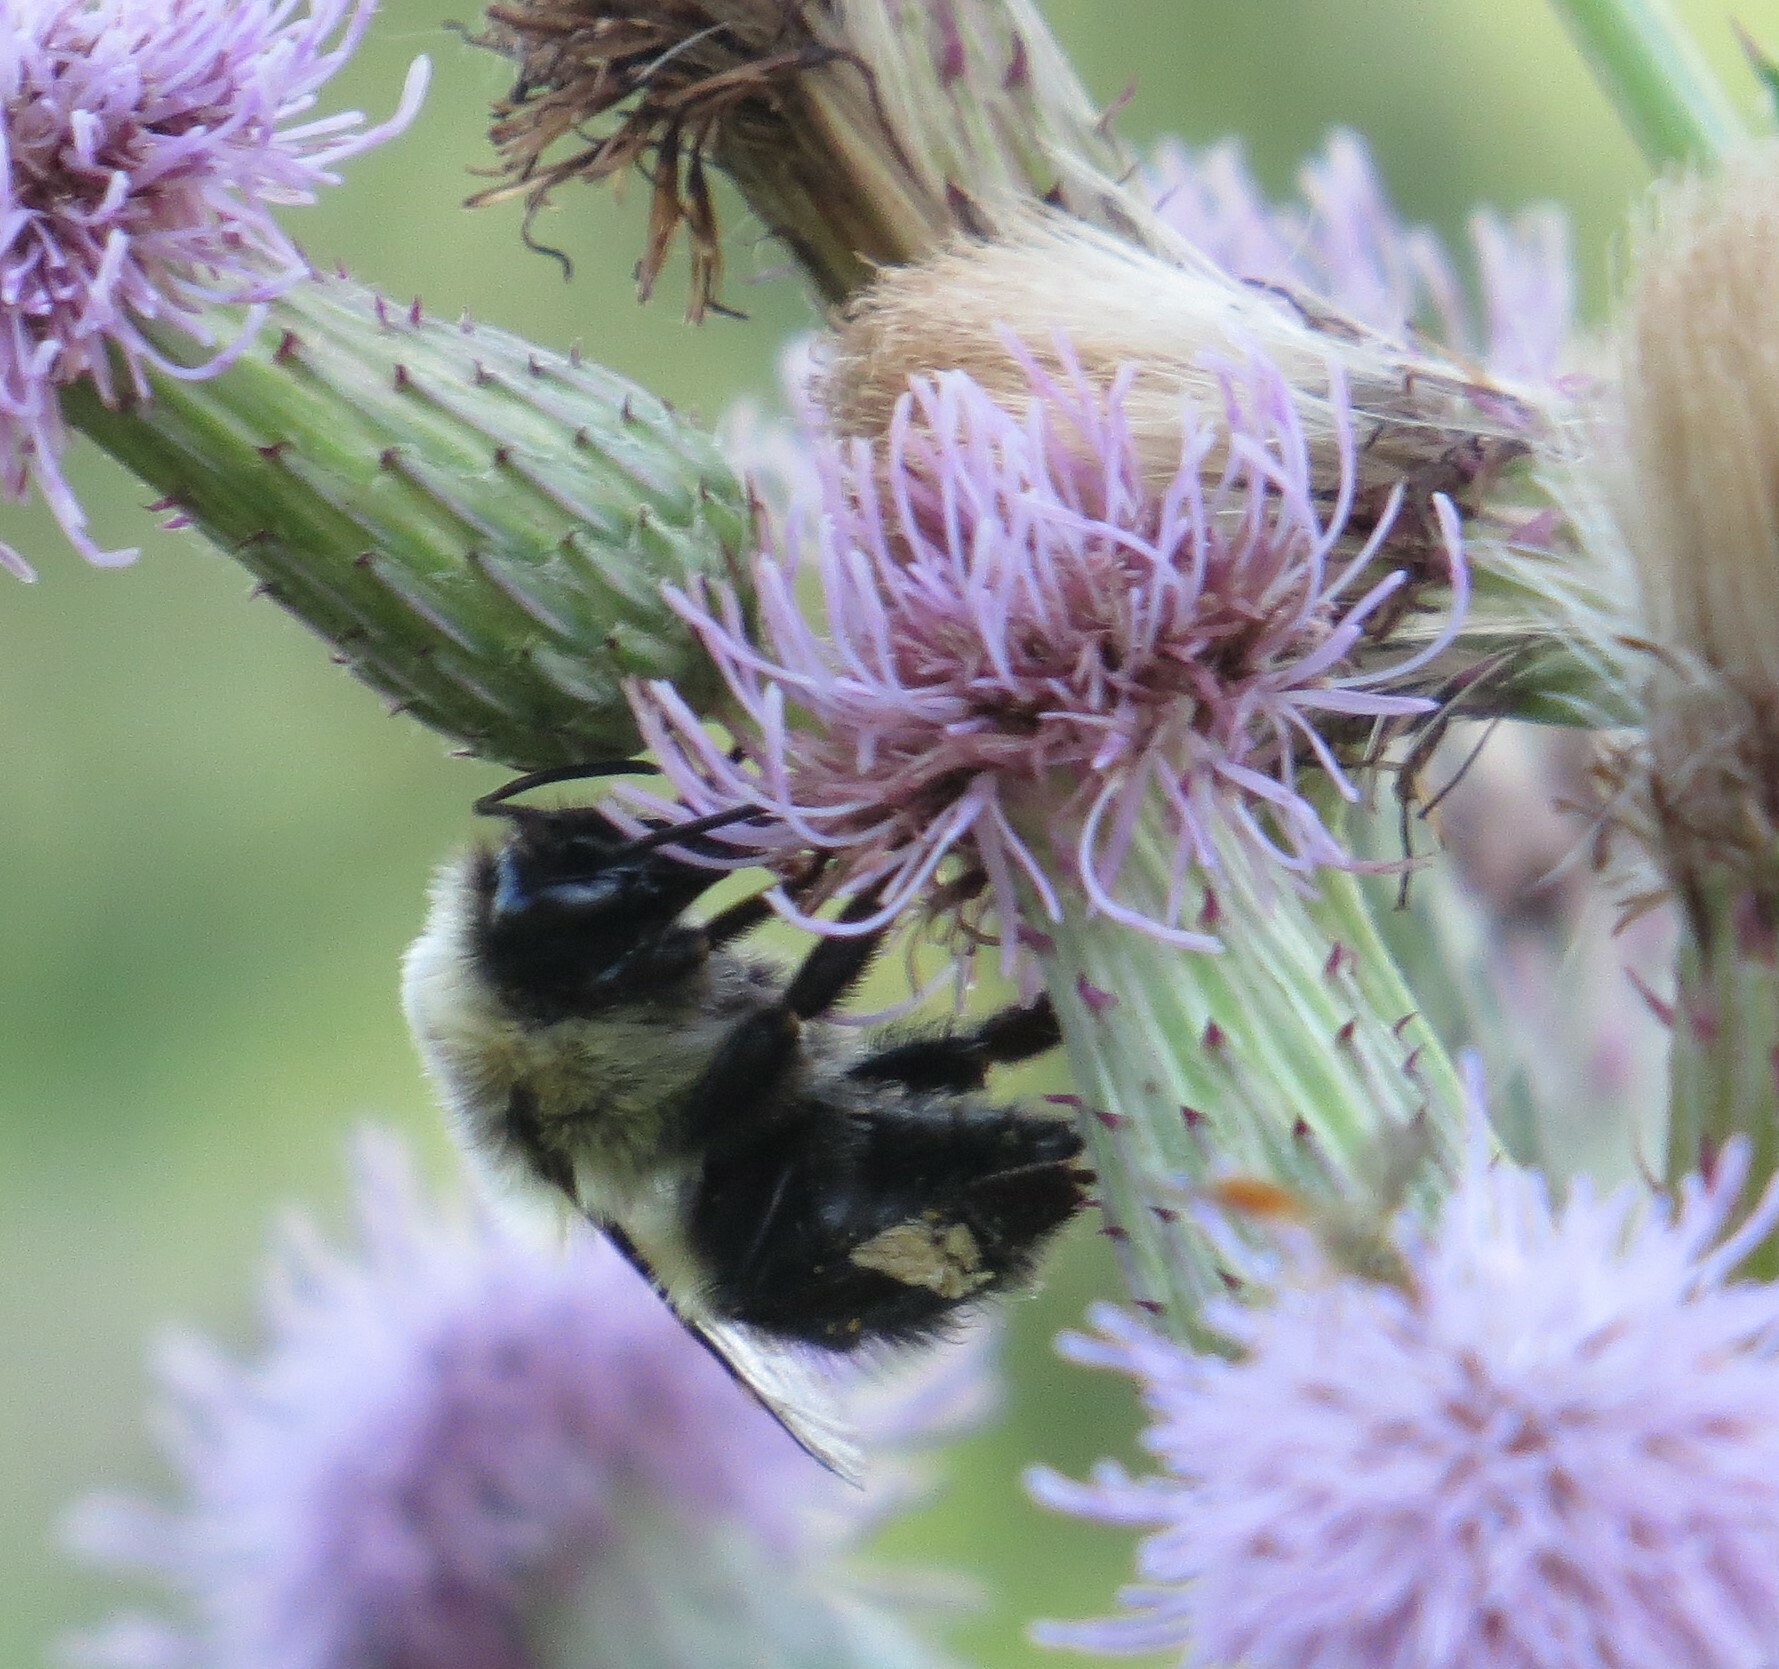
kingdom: Animalia
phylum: Arthropoda
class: Insecta
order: Hymenoptera
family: Apidae
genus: Bombus
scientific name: Bombus impatiens
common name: Common eastern bumble bee
